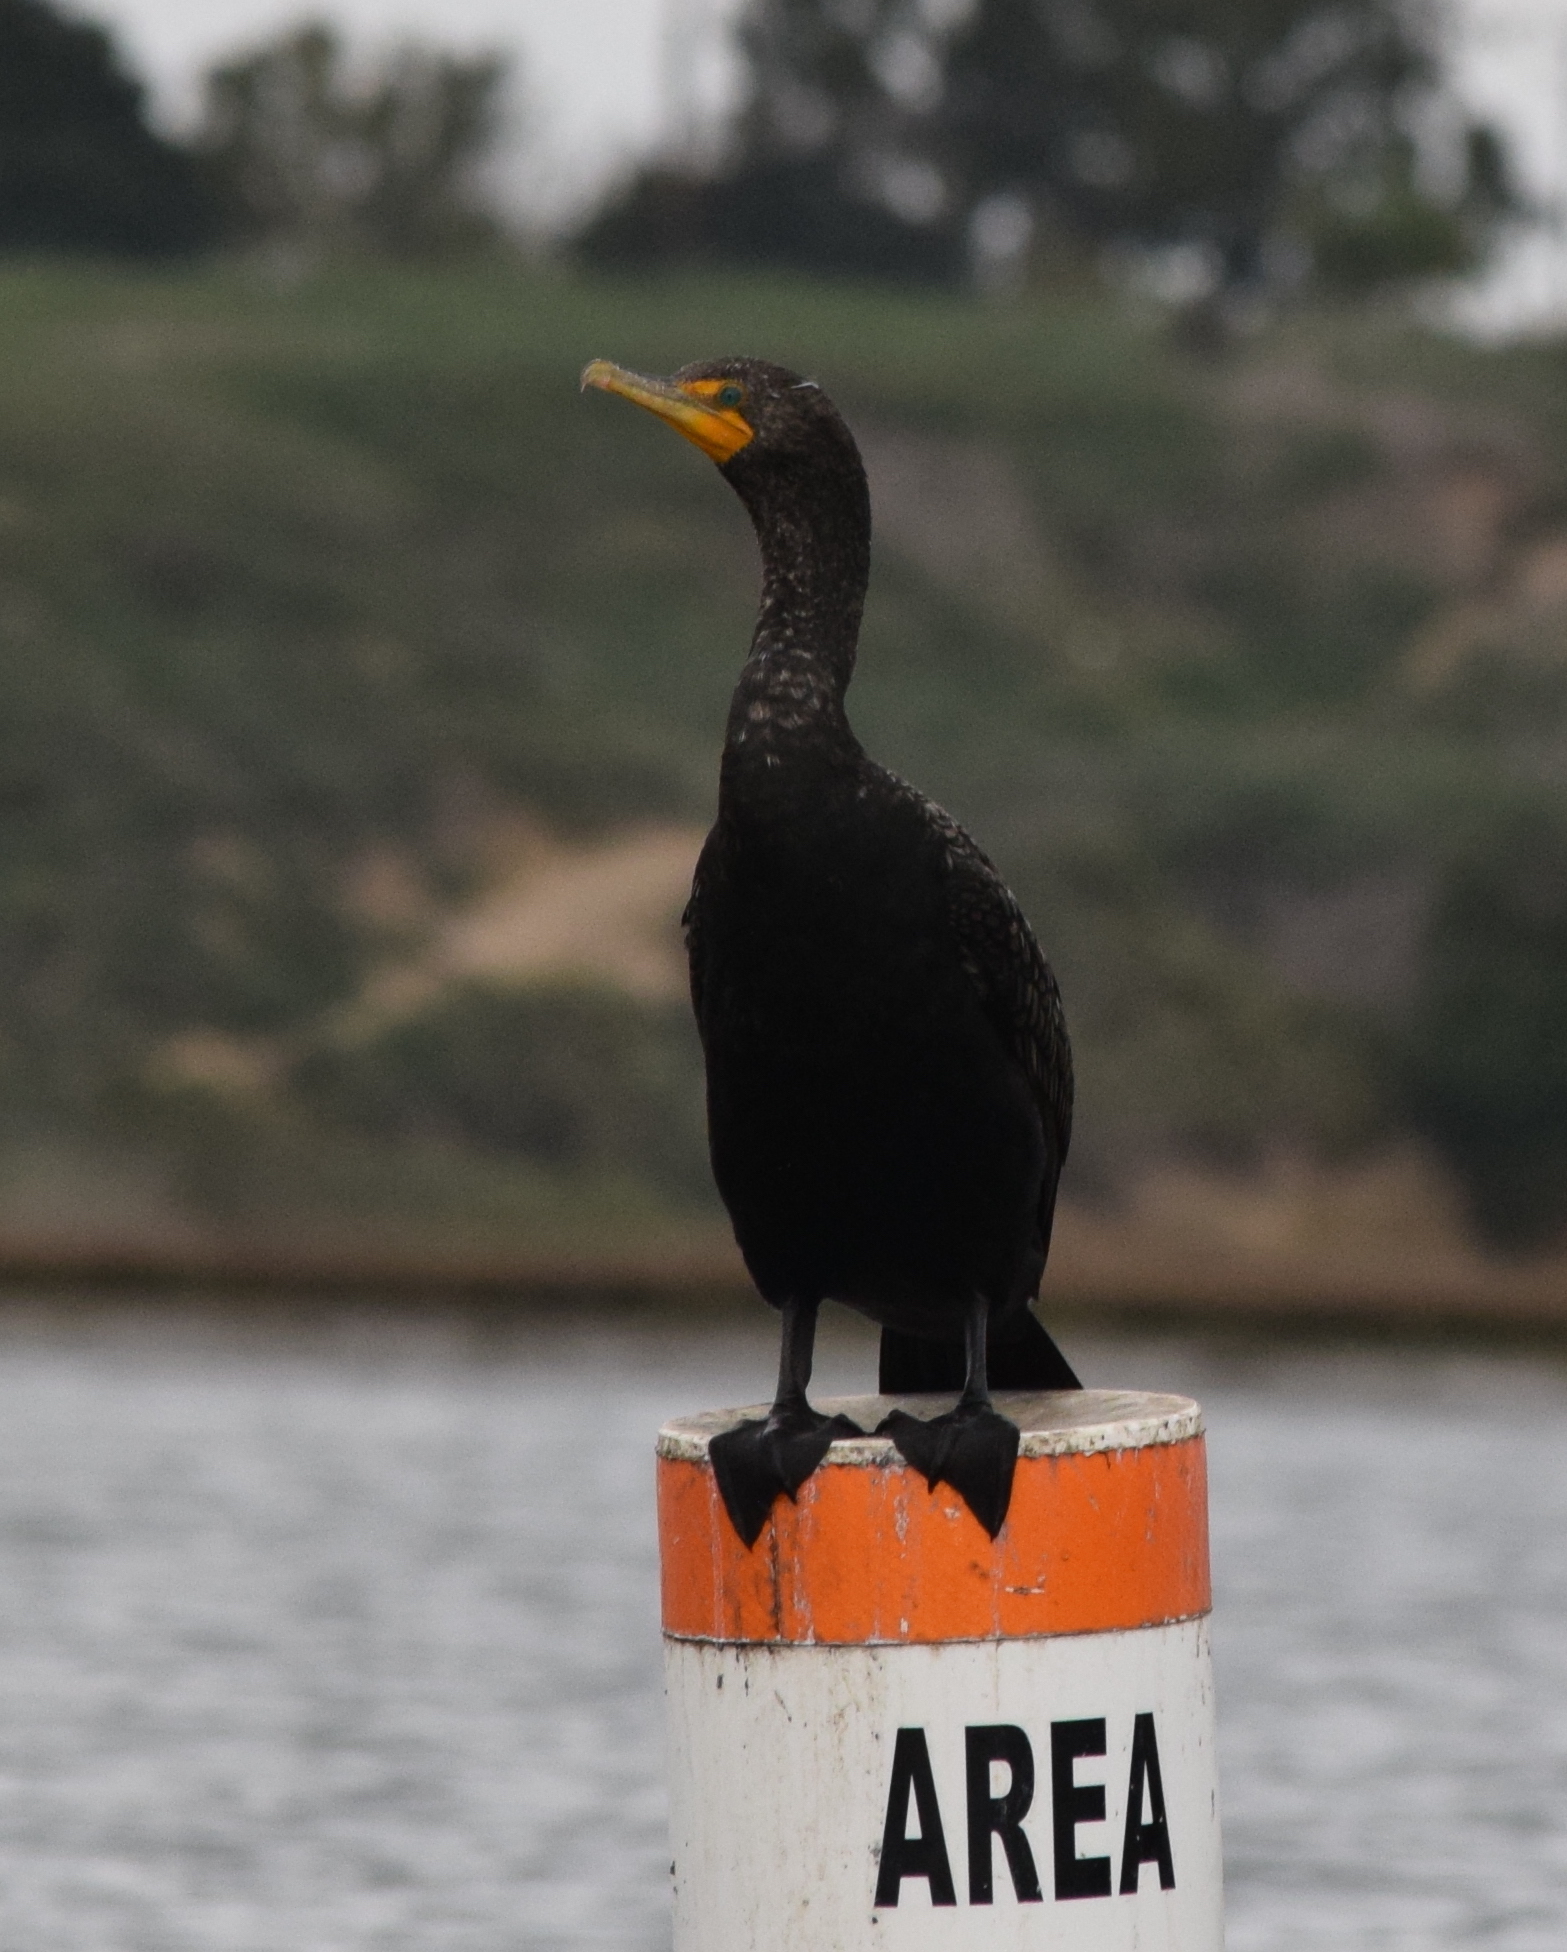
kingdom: Animalia
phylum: Chordata
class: Aves
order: Suliformes
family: Phalacrocoracidae
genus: Phalacrocorax
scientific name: Phalacrocorax auritus
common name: Double-crested cormorant
